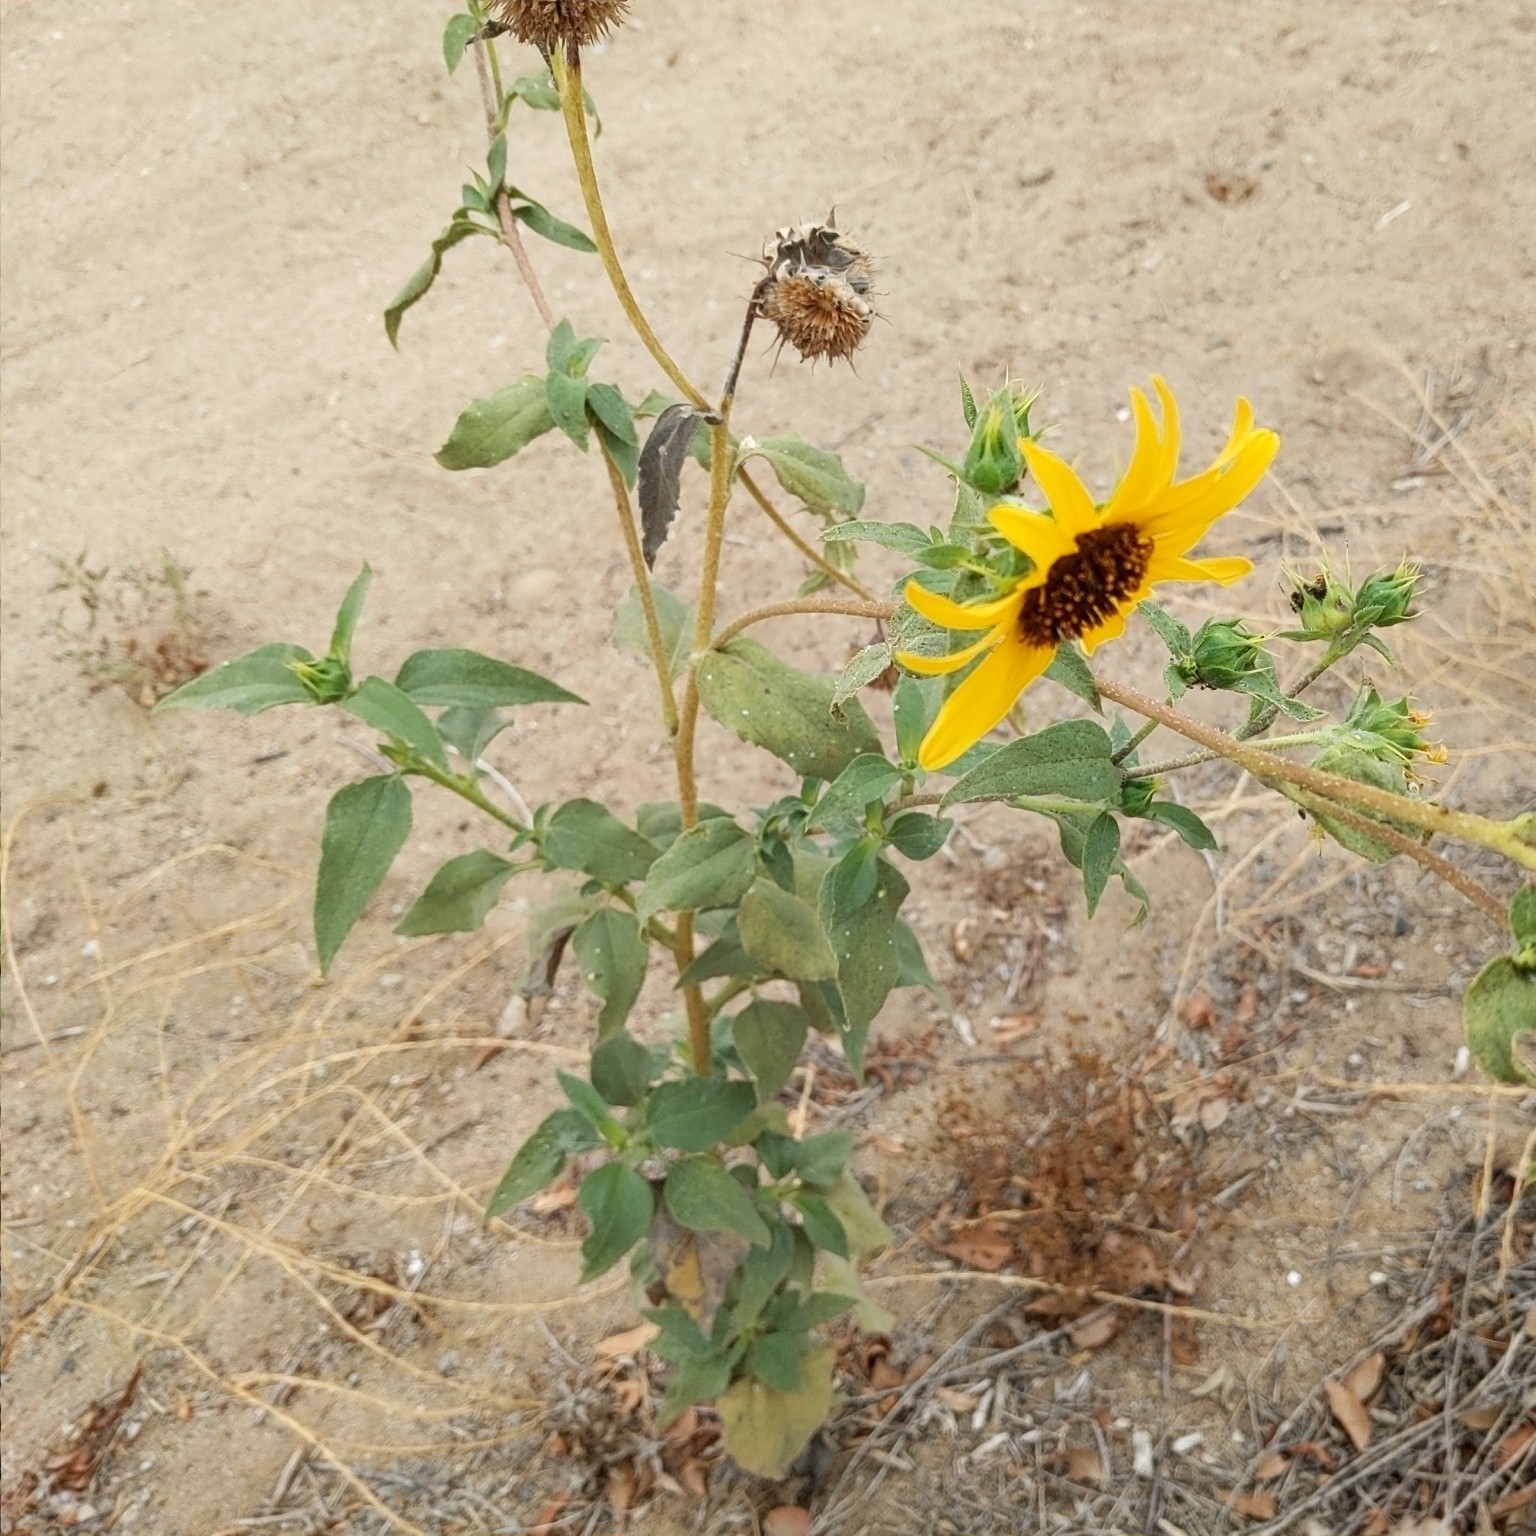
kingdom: Plantae
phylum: Tracheophyta
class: Magnoliopsida
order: Asterales
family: Asteraceae
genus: Helianthus
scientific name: Helianthus annuus
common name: Sunflower
